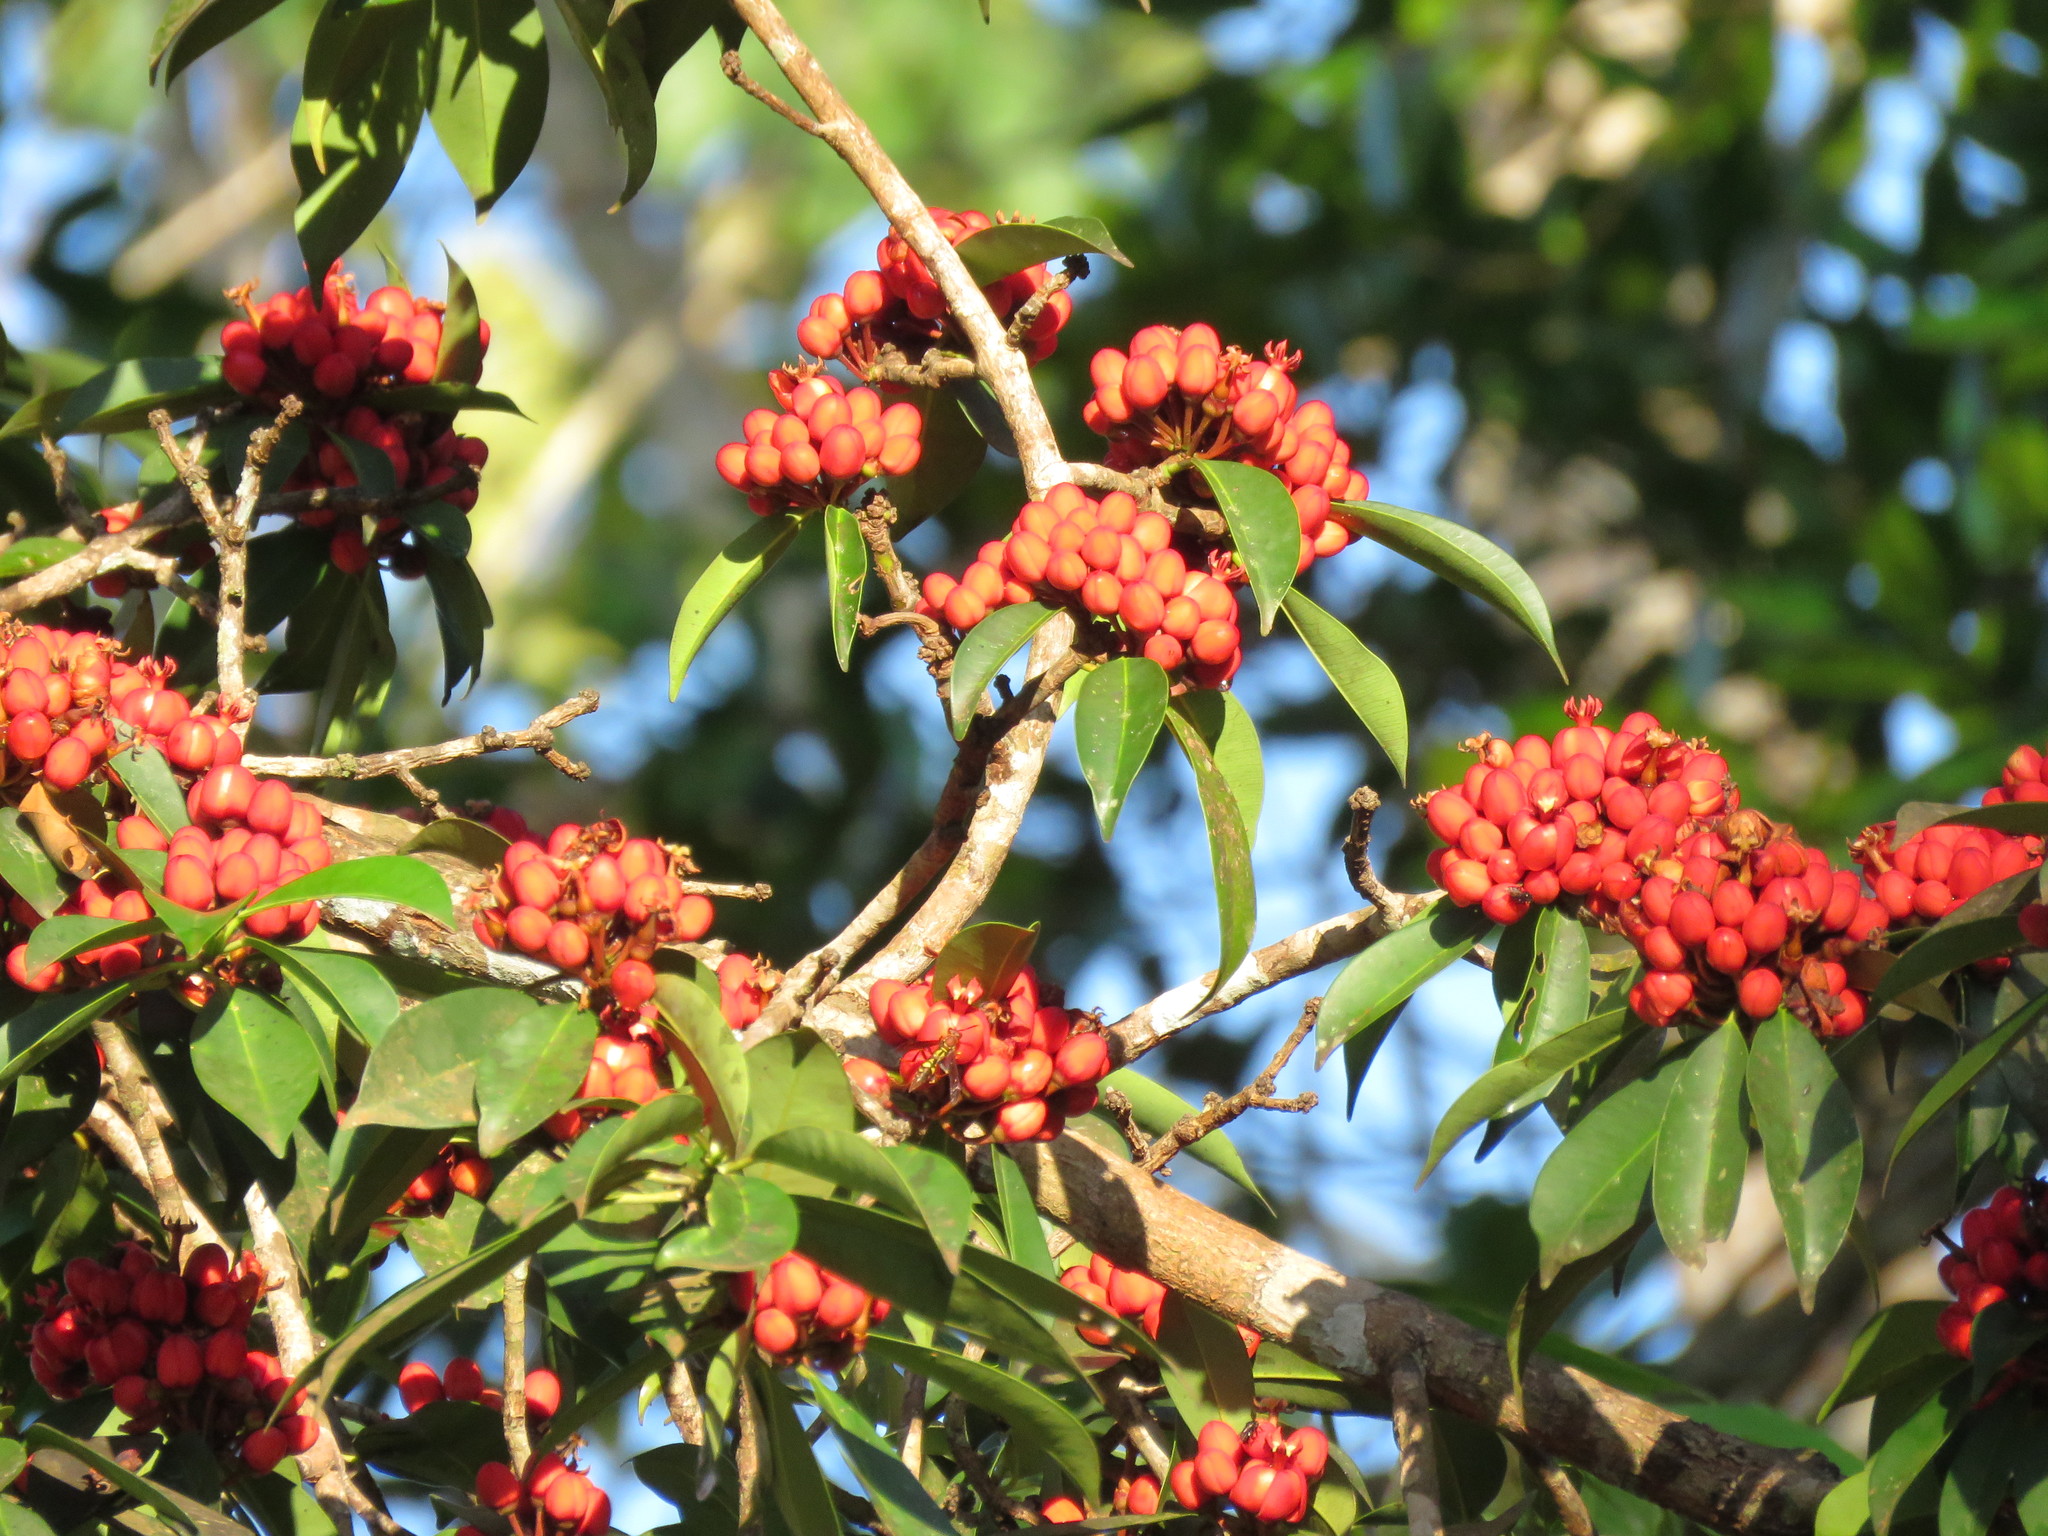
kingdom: Plantae
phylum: Tracheophyta
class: Magnoliopsida
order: Malpighiales
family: Clusiaceae
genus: Symphonia
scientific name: Symphonia globulifera
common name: Boarwood
